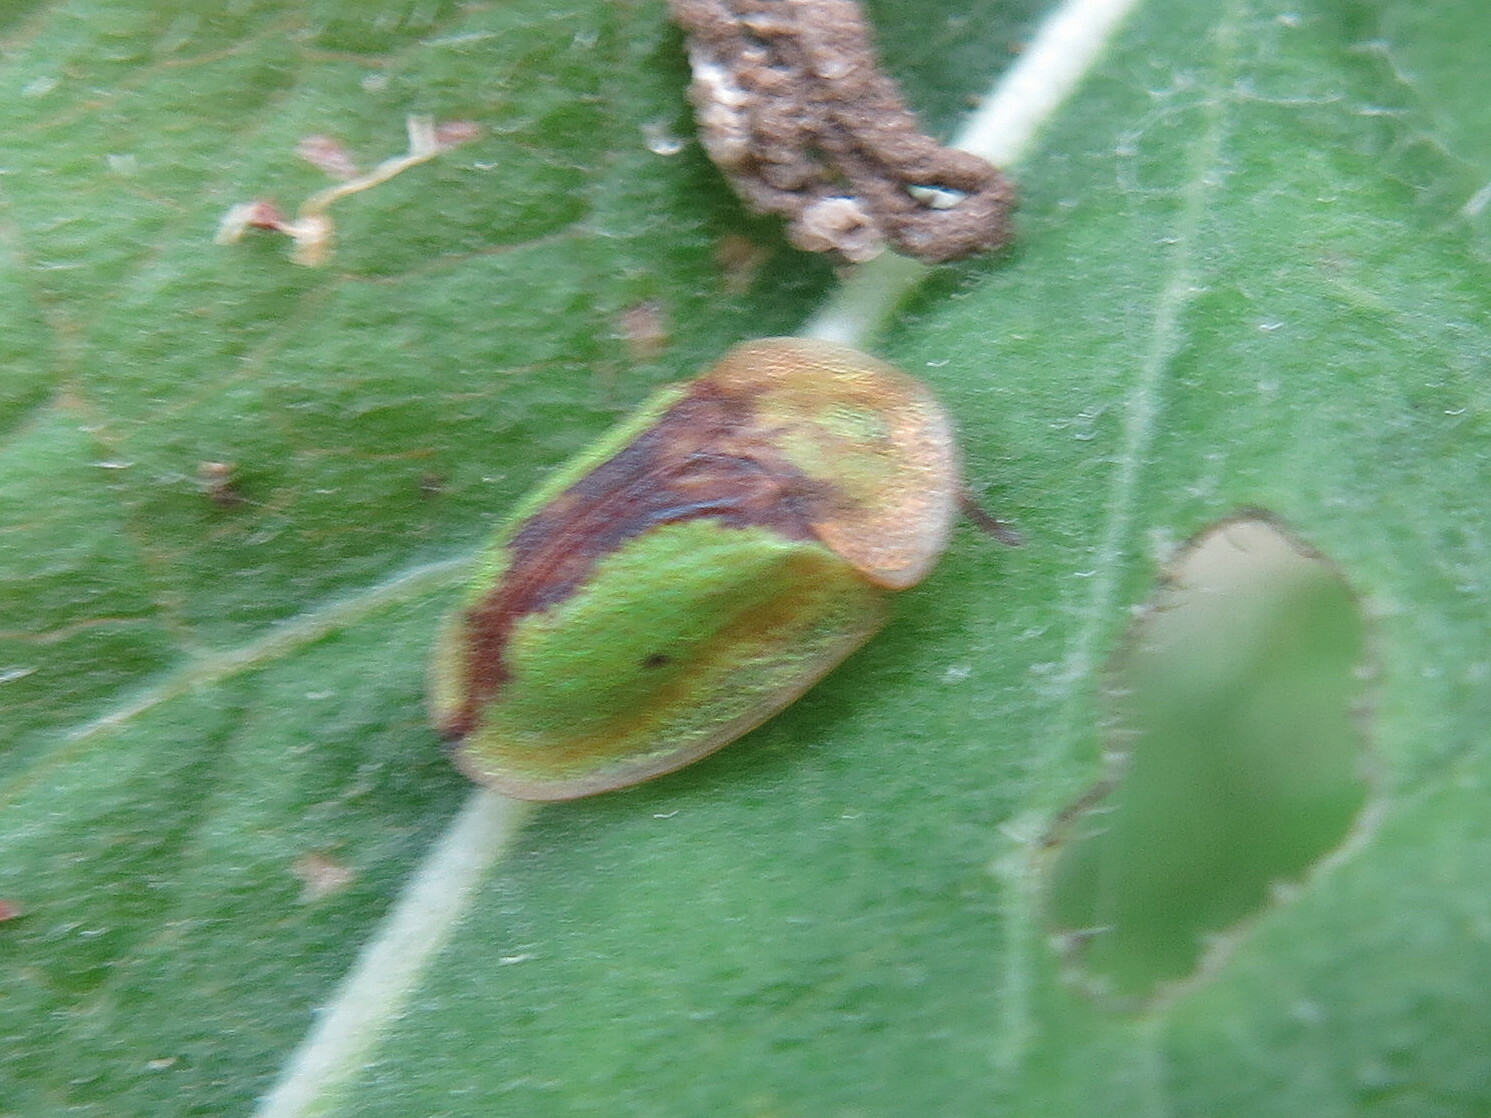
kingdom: Animalia
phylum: Arthropoda
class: Insecta
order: Coleoptera
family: Chrysomelidae
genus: Cassida
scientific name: Cassida vibex
